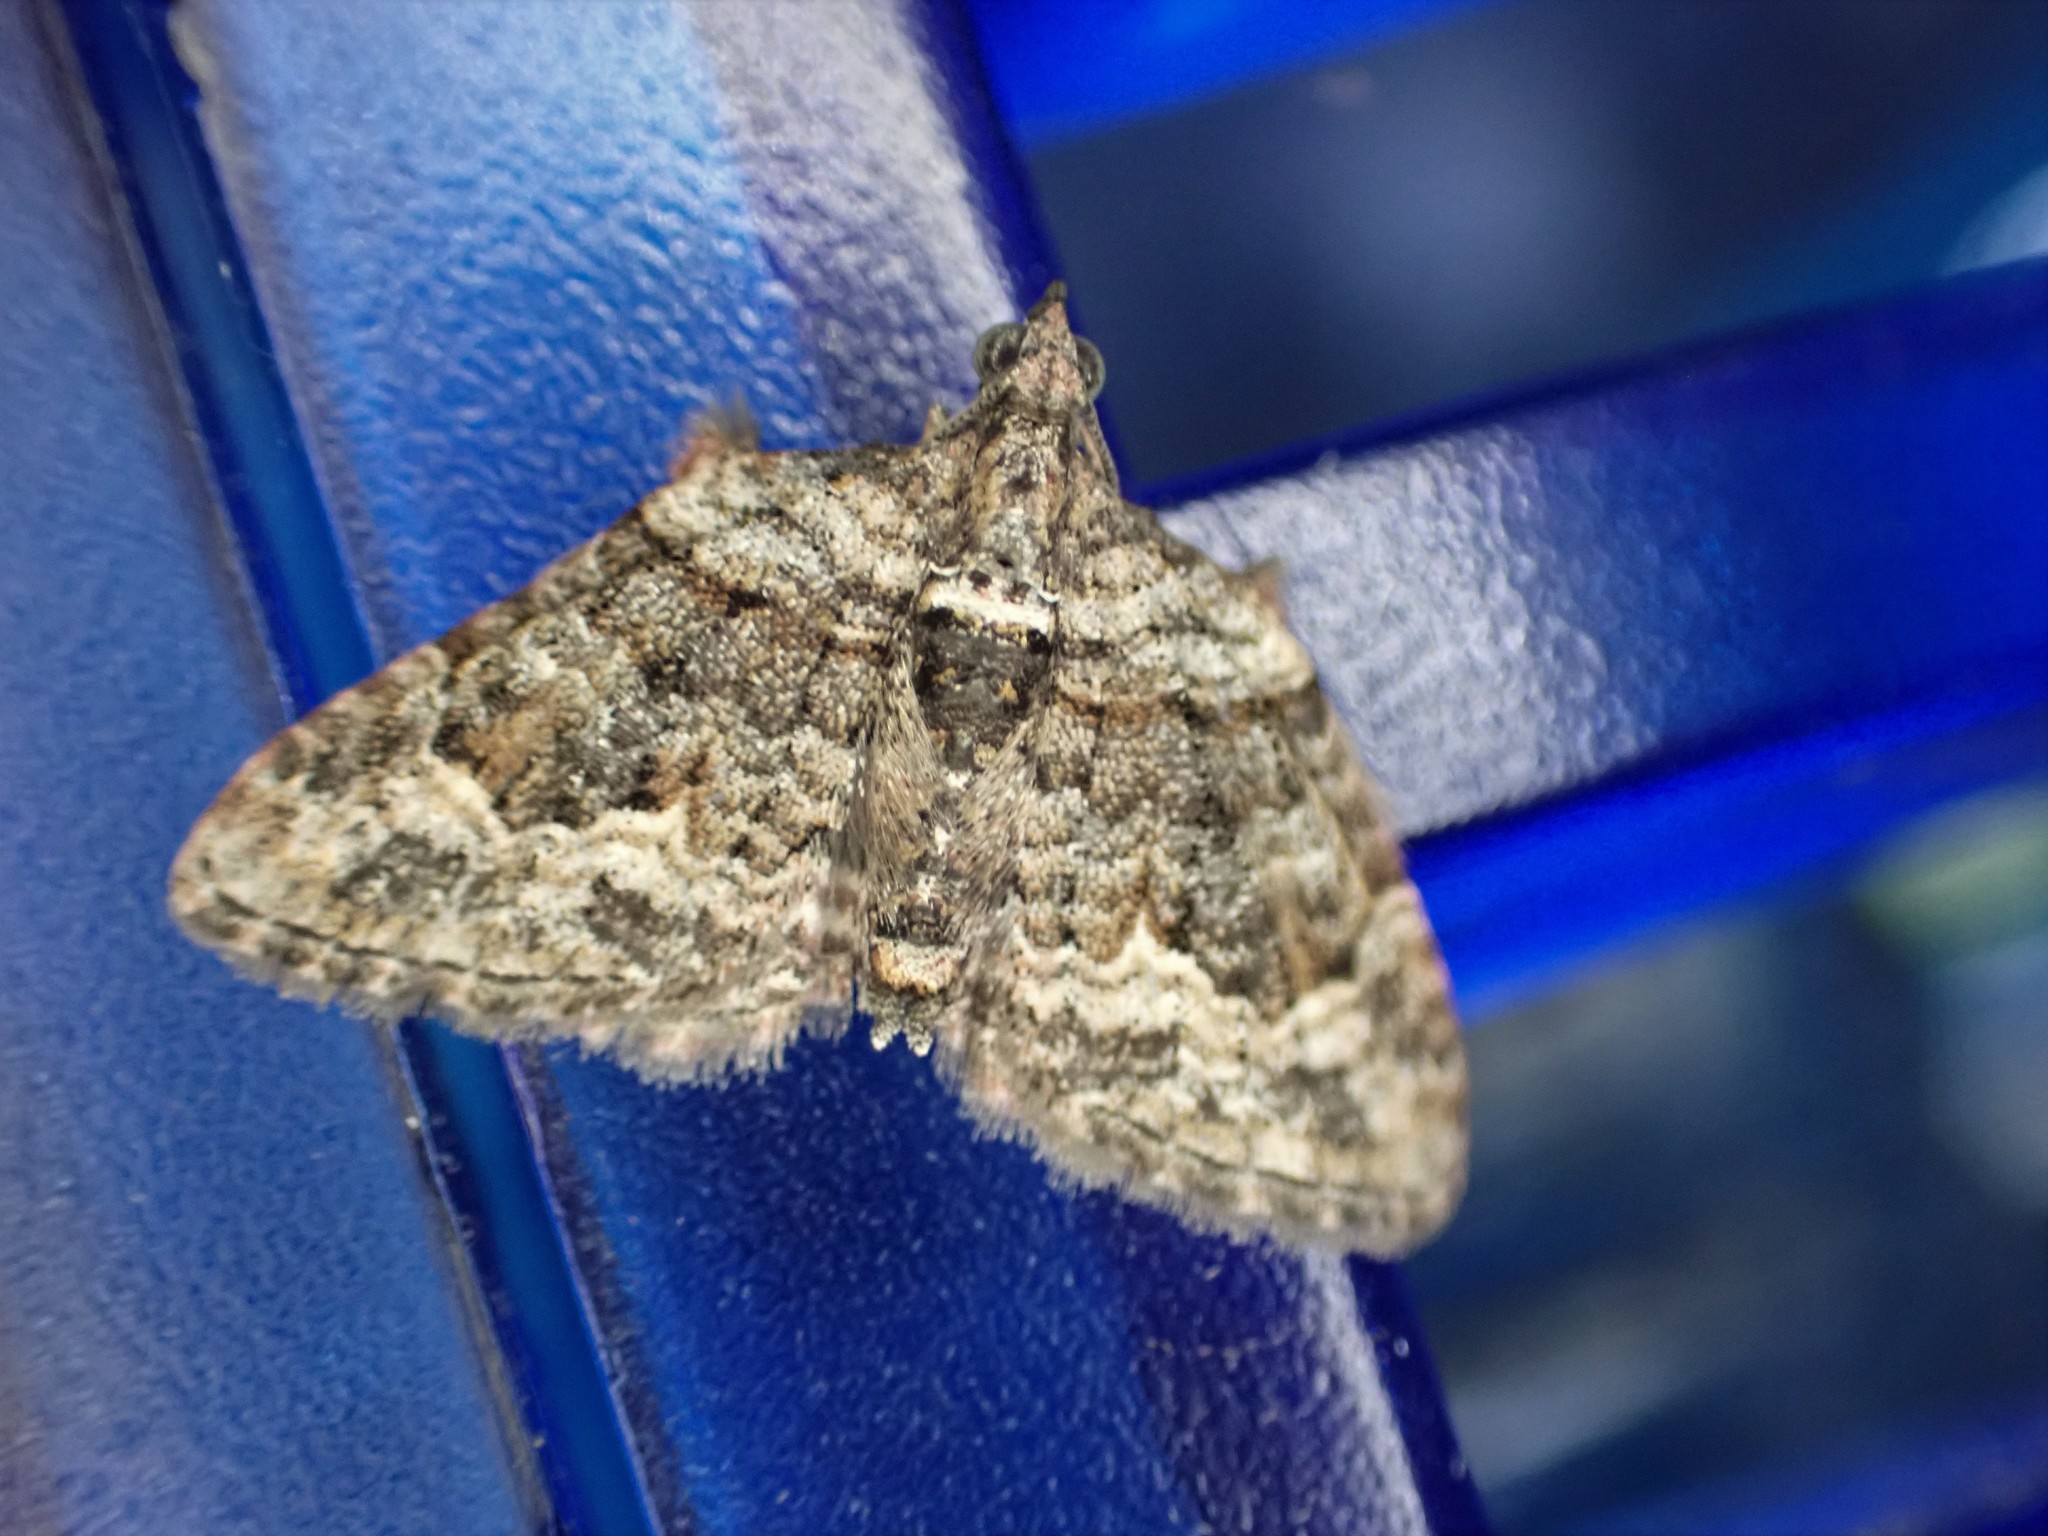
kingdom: Animalia
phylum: Arthropoda
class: Insecta
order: Lepidoptera
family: Geometridae
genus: Phrissogonus
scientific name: Phrissogonus laticostata
